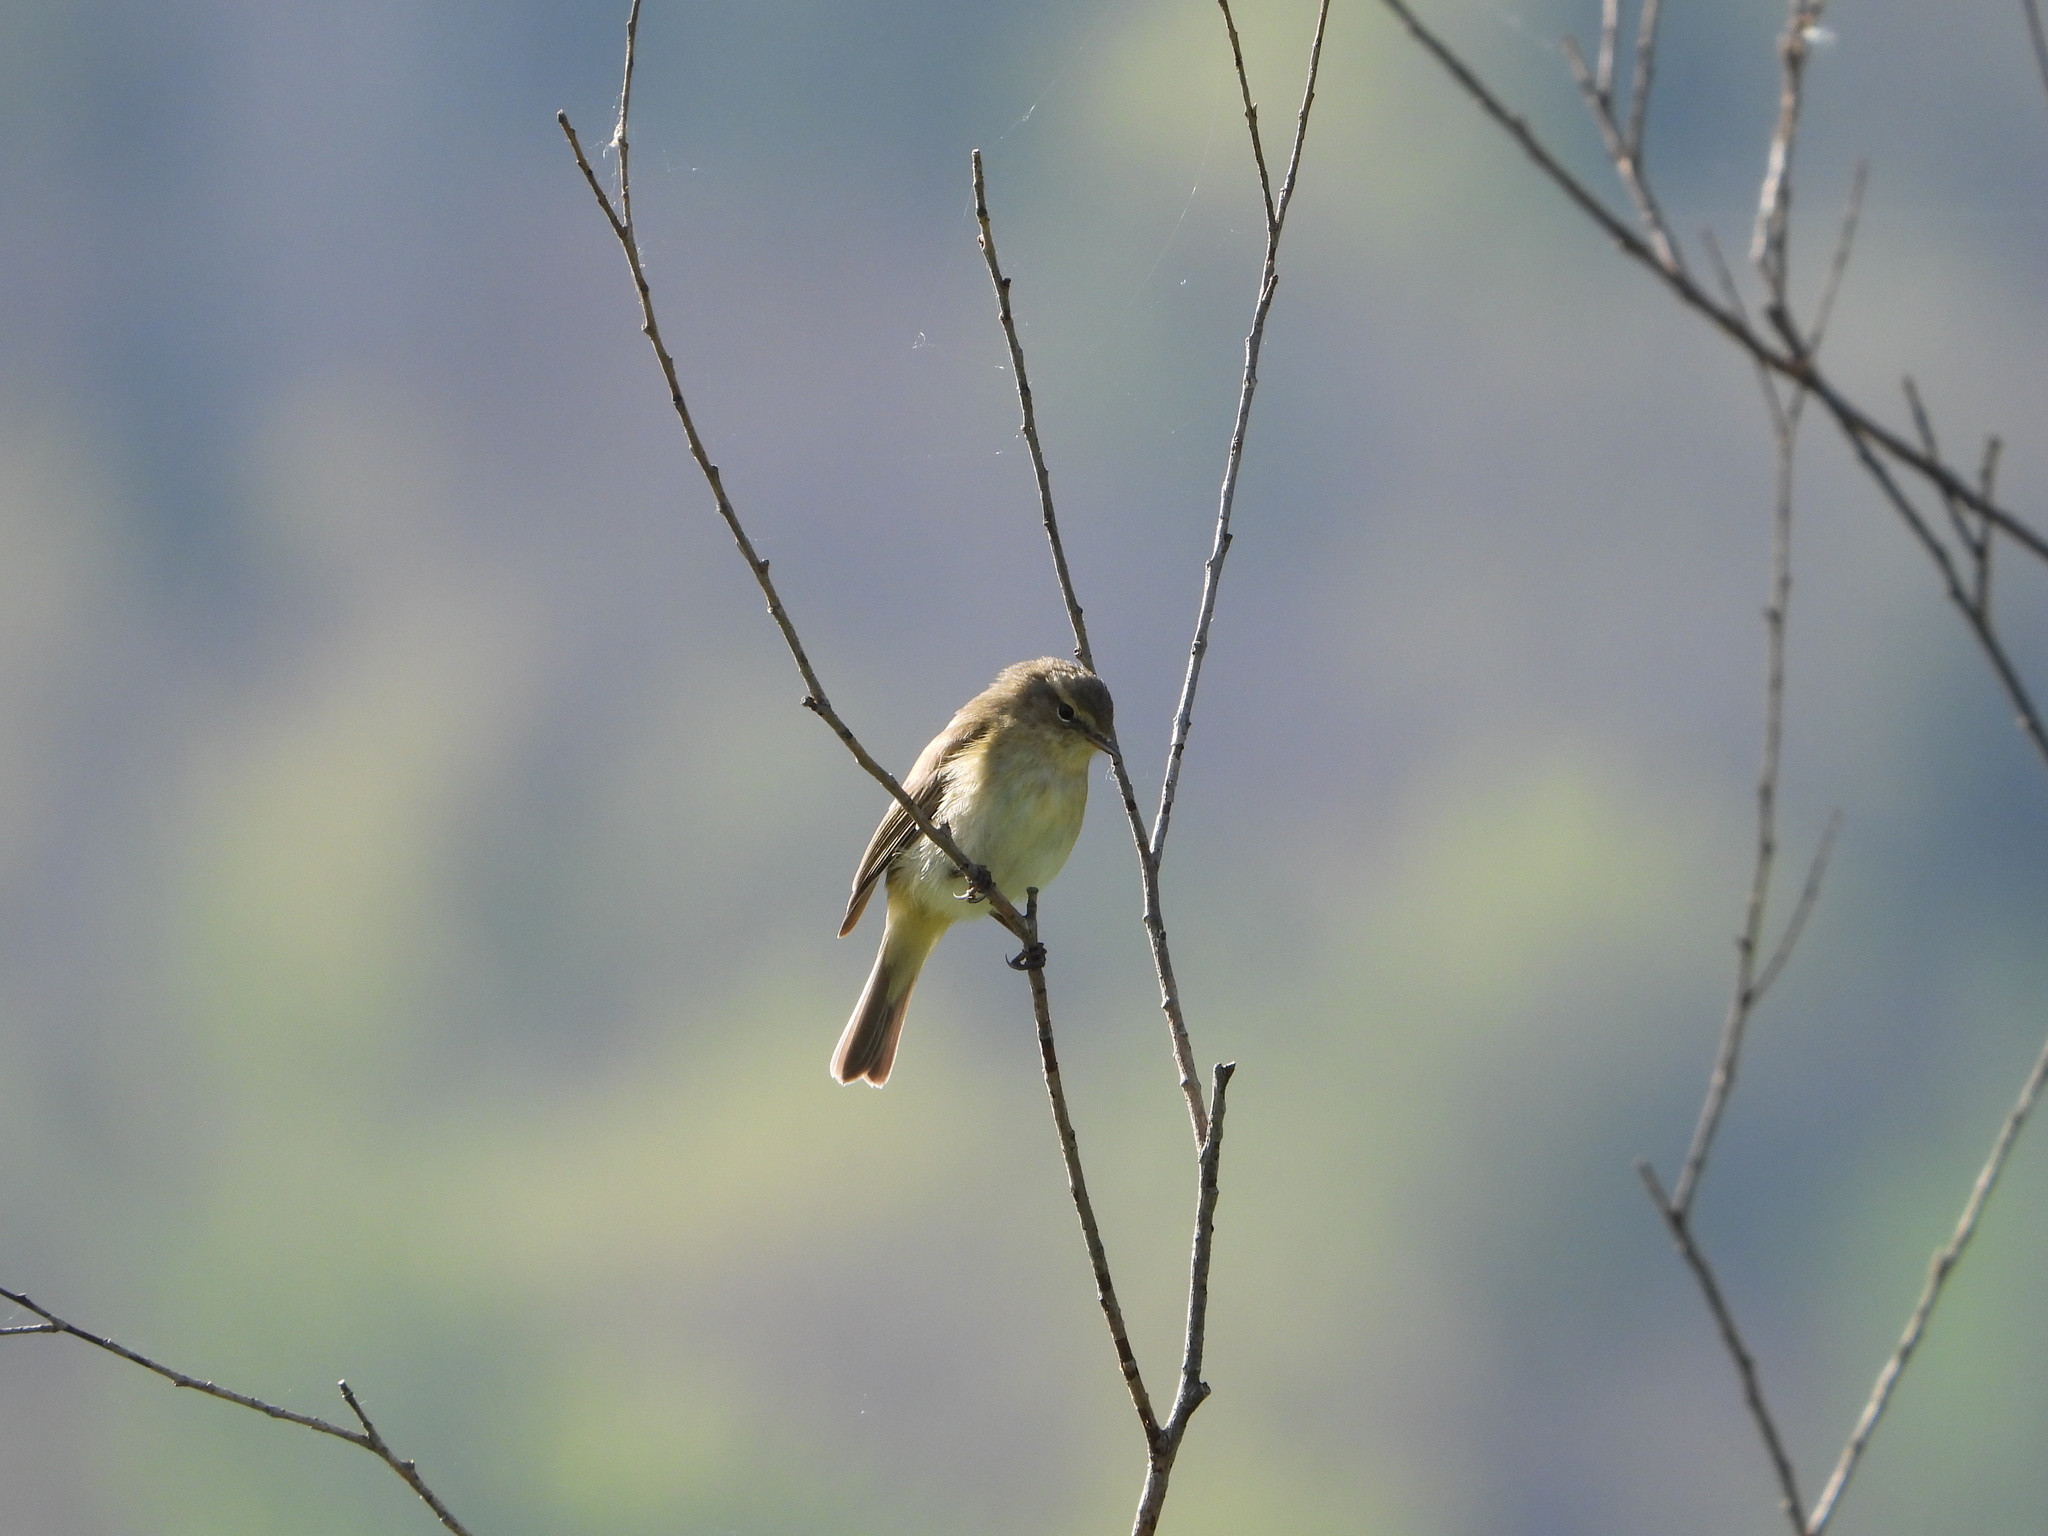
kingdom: Animalia
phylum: Chordata
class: Aves
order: Passeriformes
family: Phylloscopidae
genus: Phylloscopus
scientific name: Phylloscopus collybita
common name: Common chiffchaff
